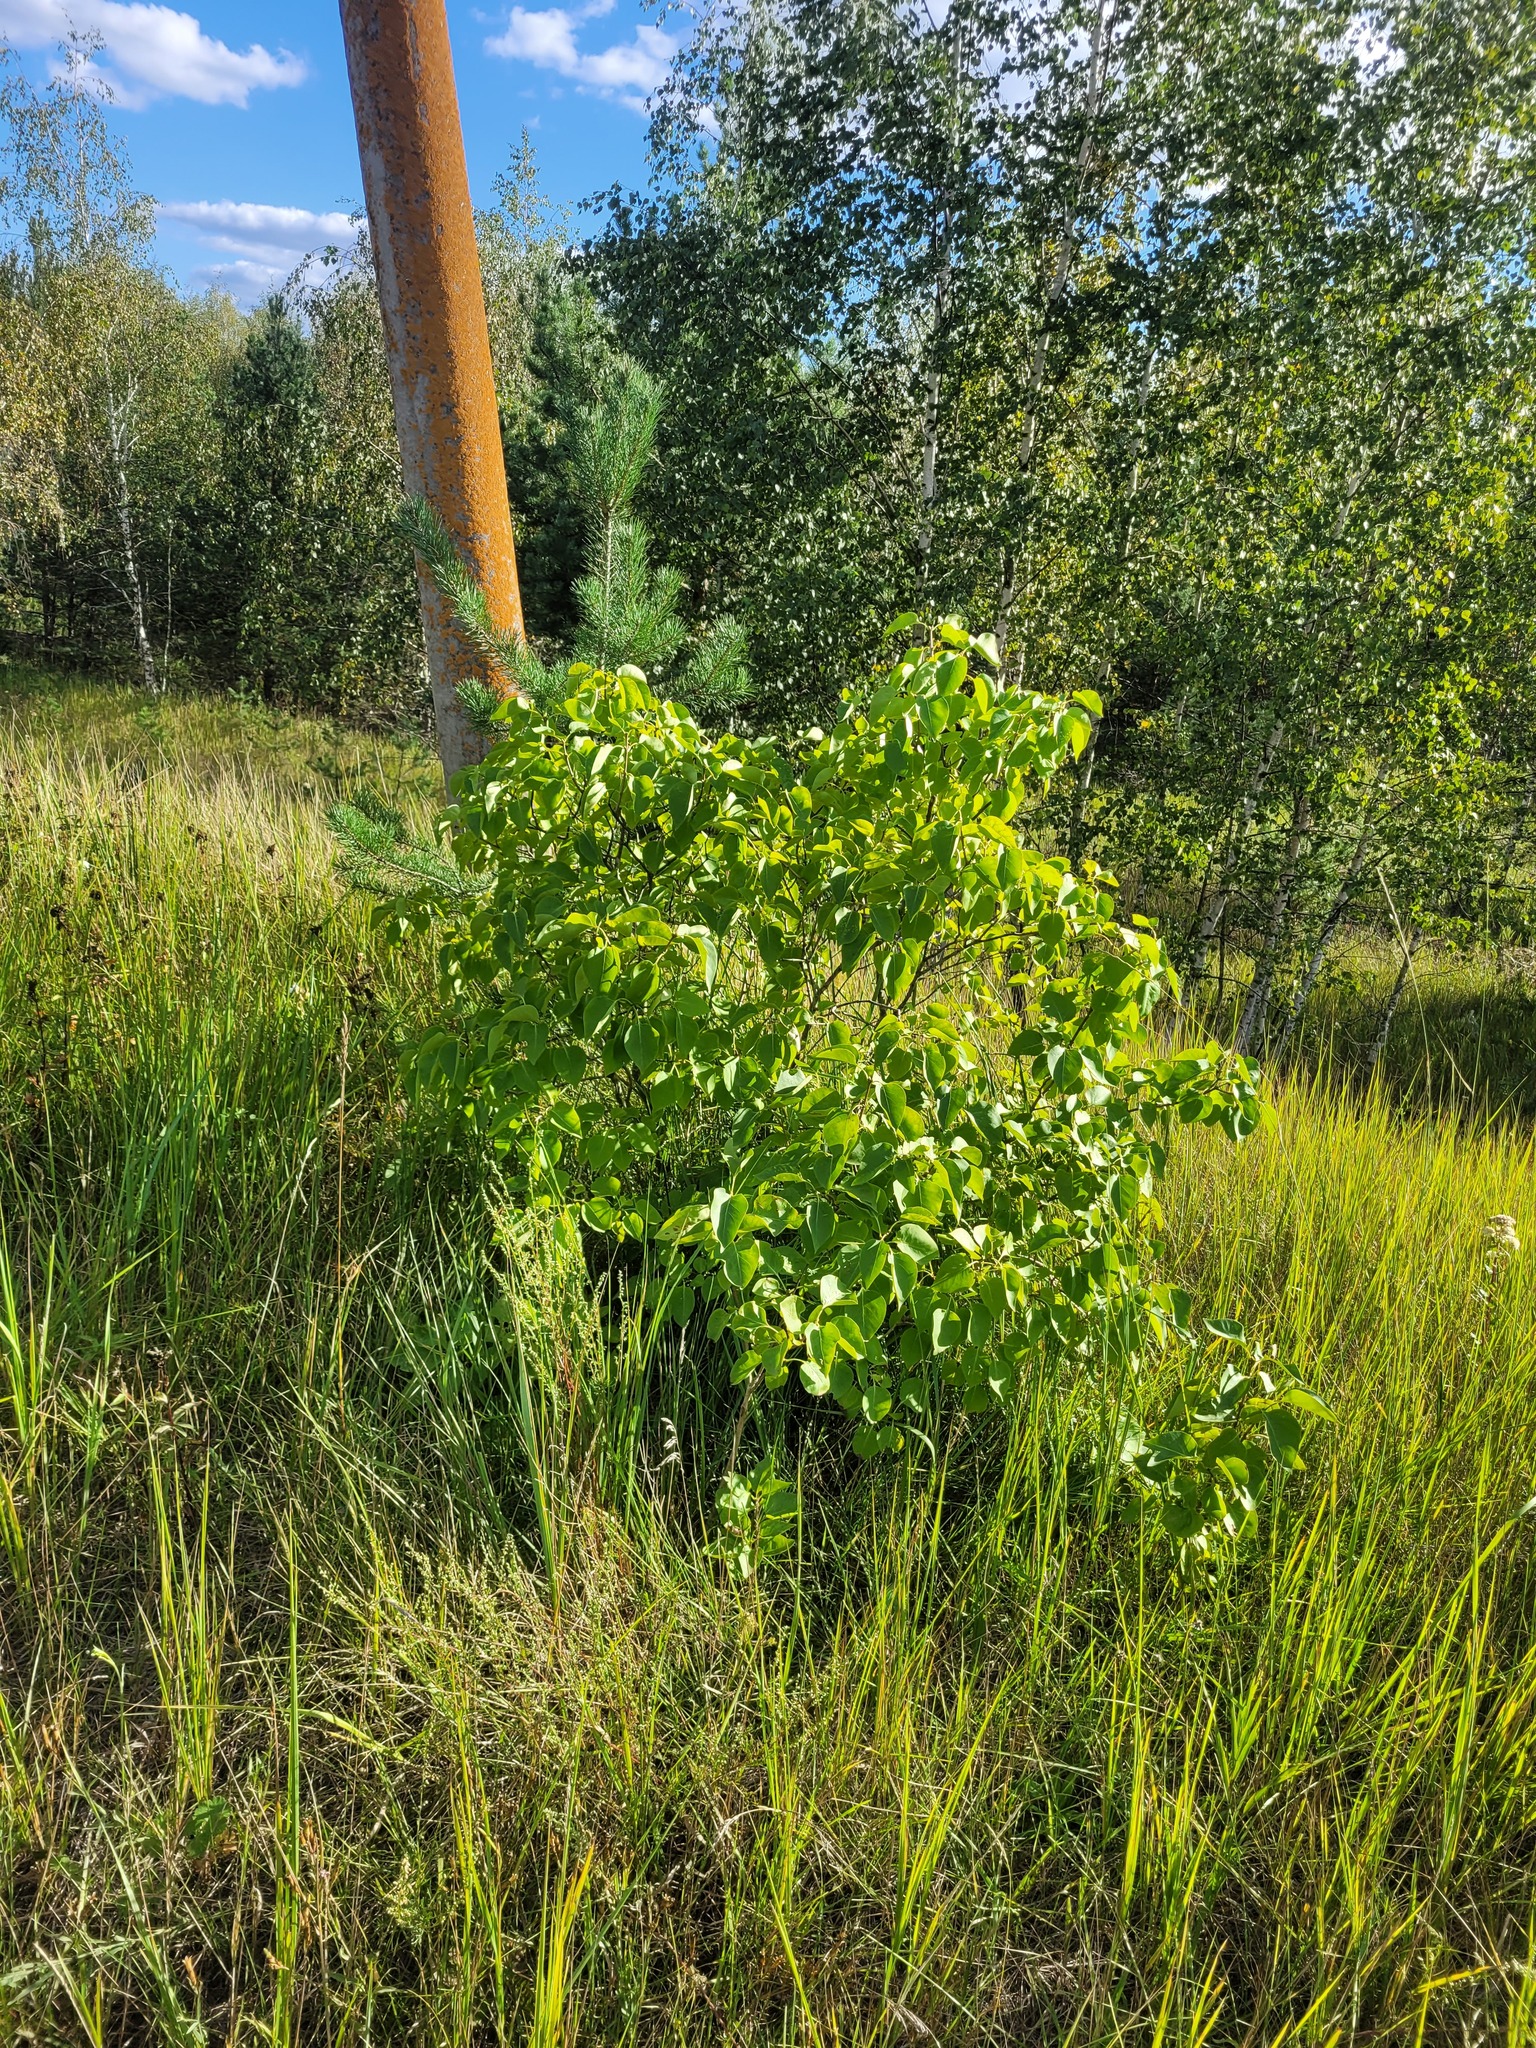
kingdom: Plantae
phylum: Tracheophyta
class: Magnoliopsida
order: Lamiales
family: Oleaceae
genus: Syringa
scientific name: Syringa vulgaris
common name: Common lilac
